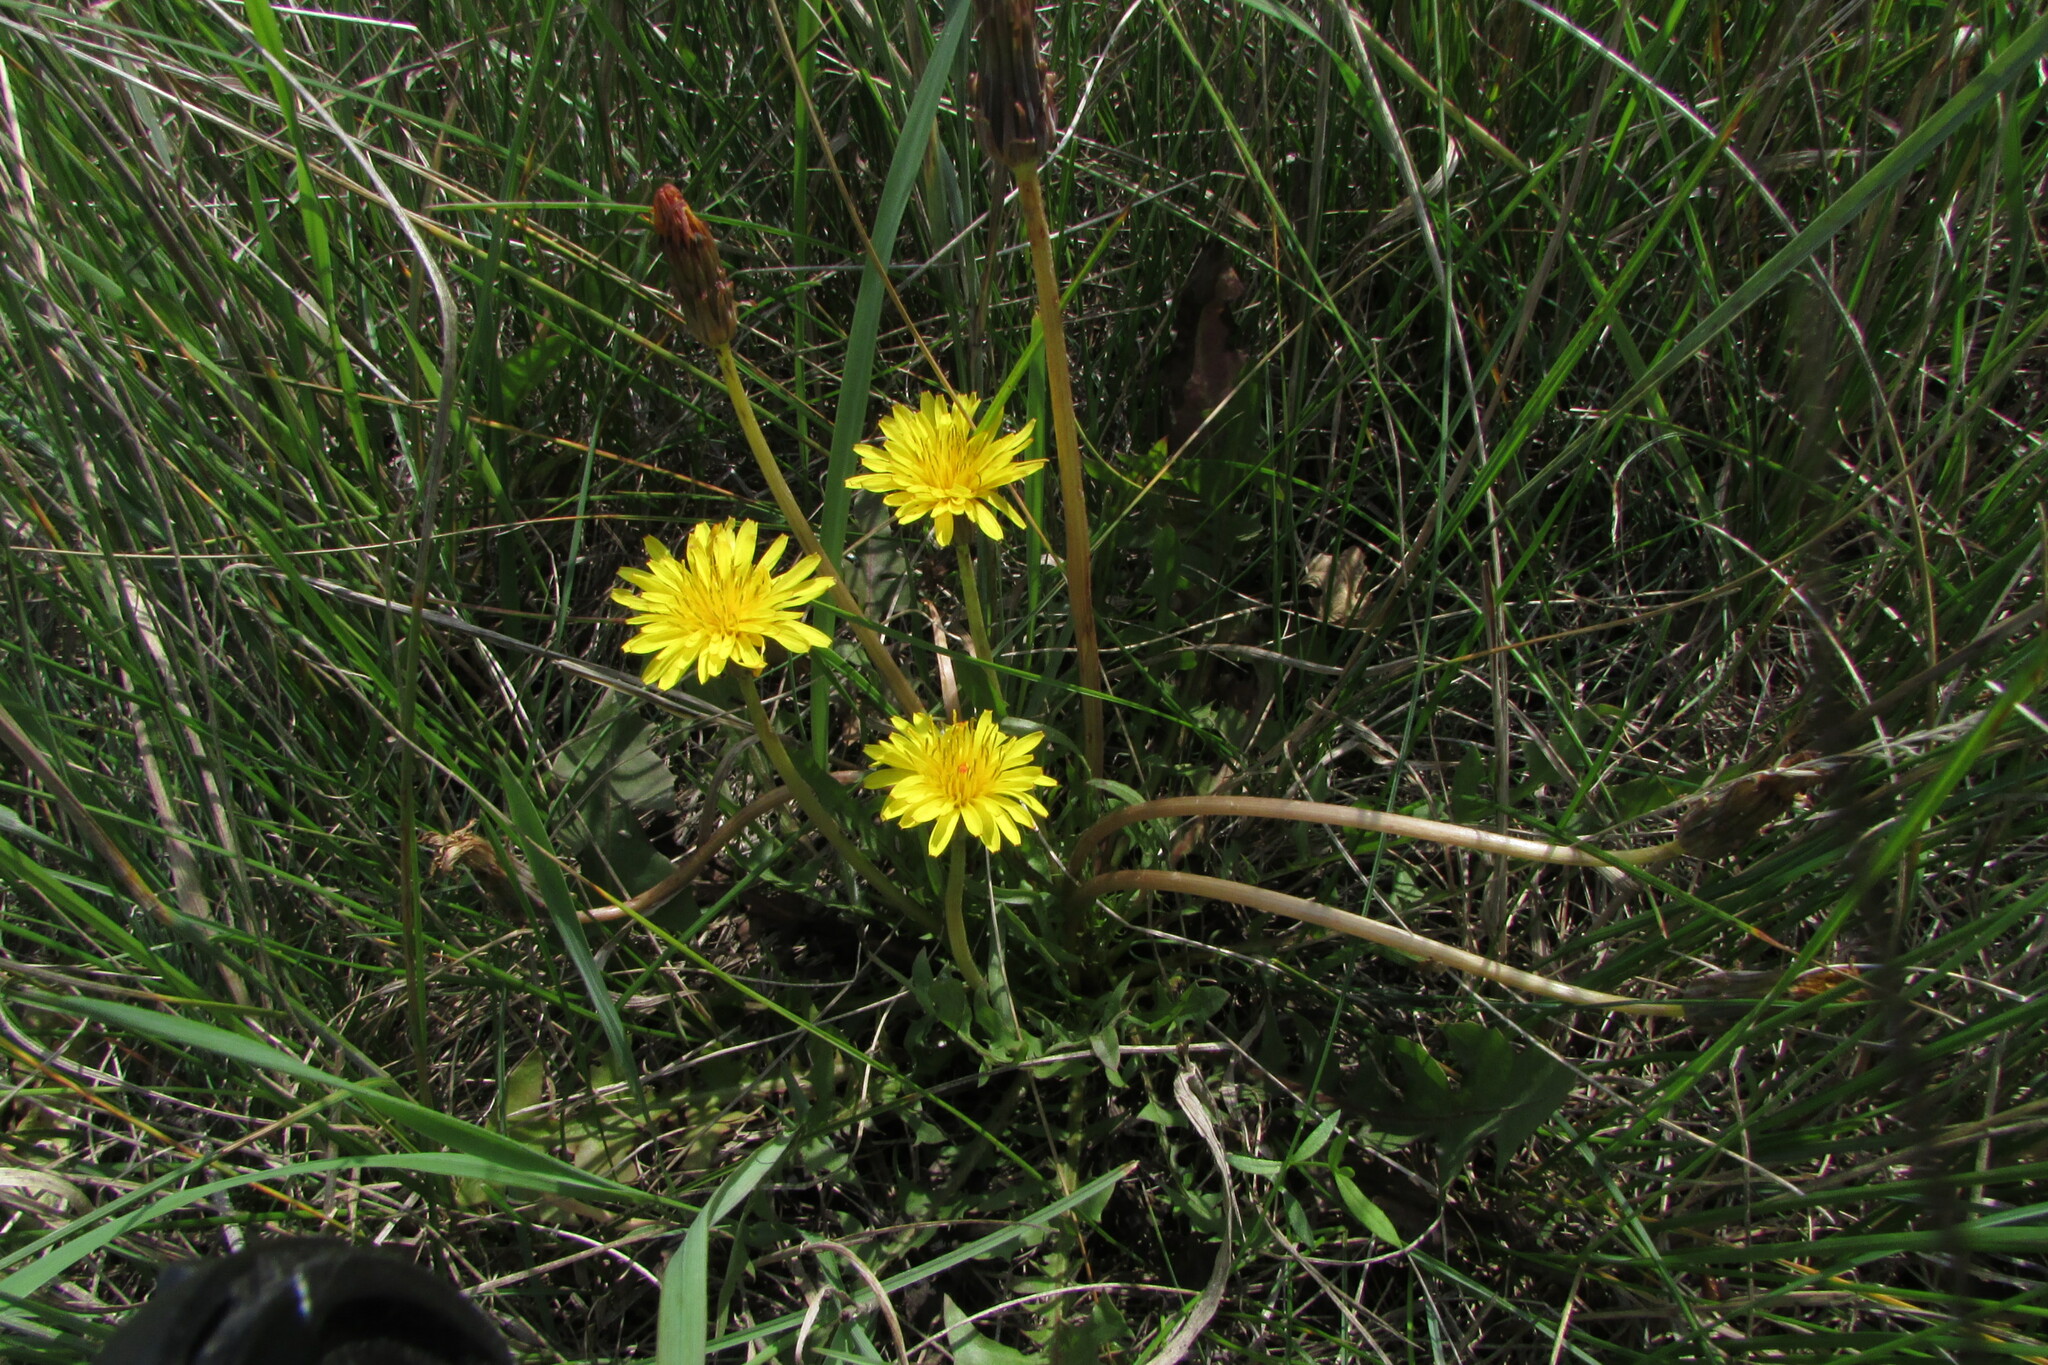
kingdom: Plantae
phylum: Tracheophyta
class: Magnoliopsida
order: Asterales
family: Asteraceae
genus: Taraxacum
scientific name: Taraxacum bessarabicum
